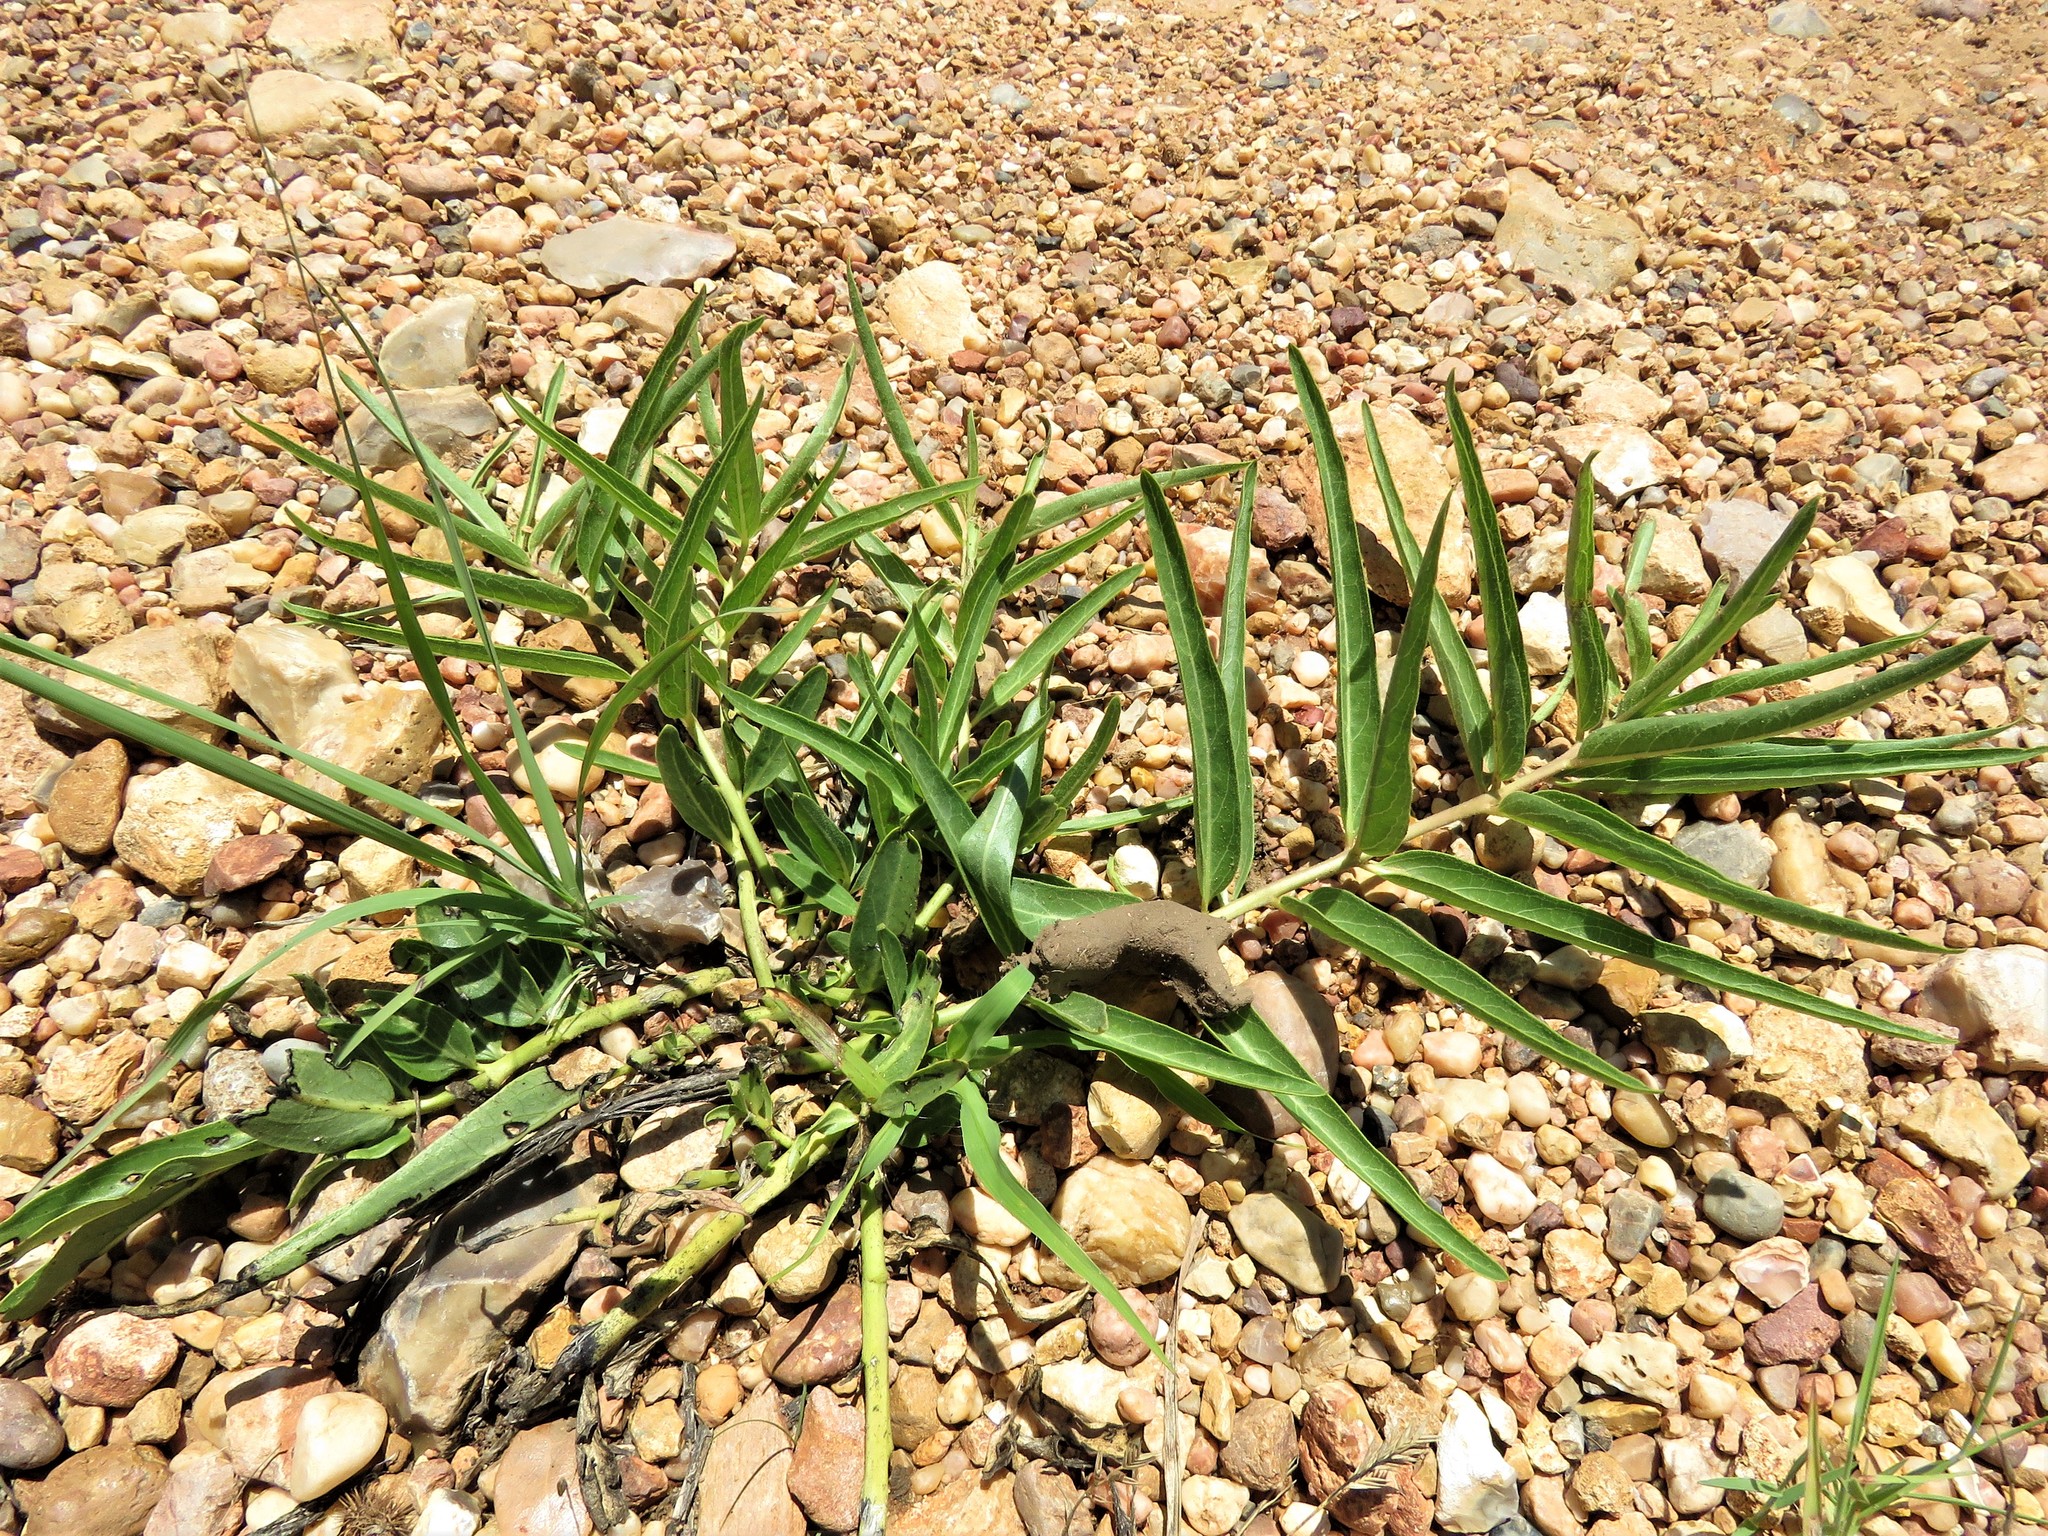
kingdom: Plantae
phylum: Tracheophyta
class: Magnoliopsida
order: Gentianales
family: Apocynaceae
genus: Asclepias
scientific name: Asclepias asperula
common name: Antelope horns
